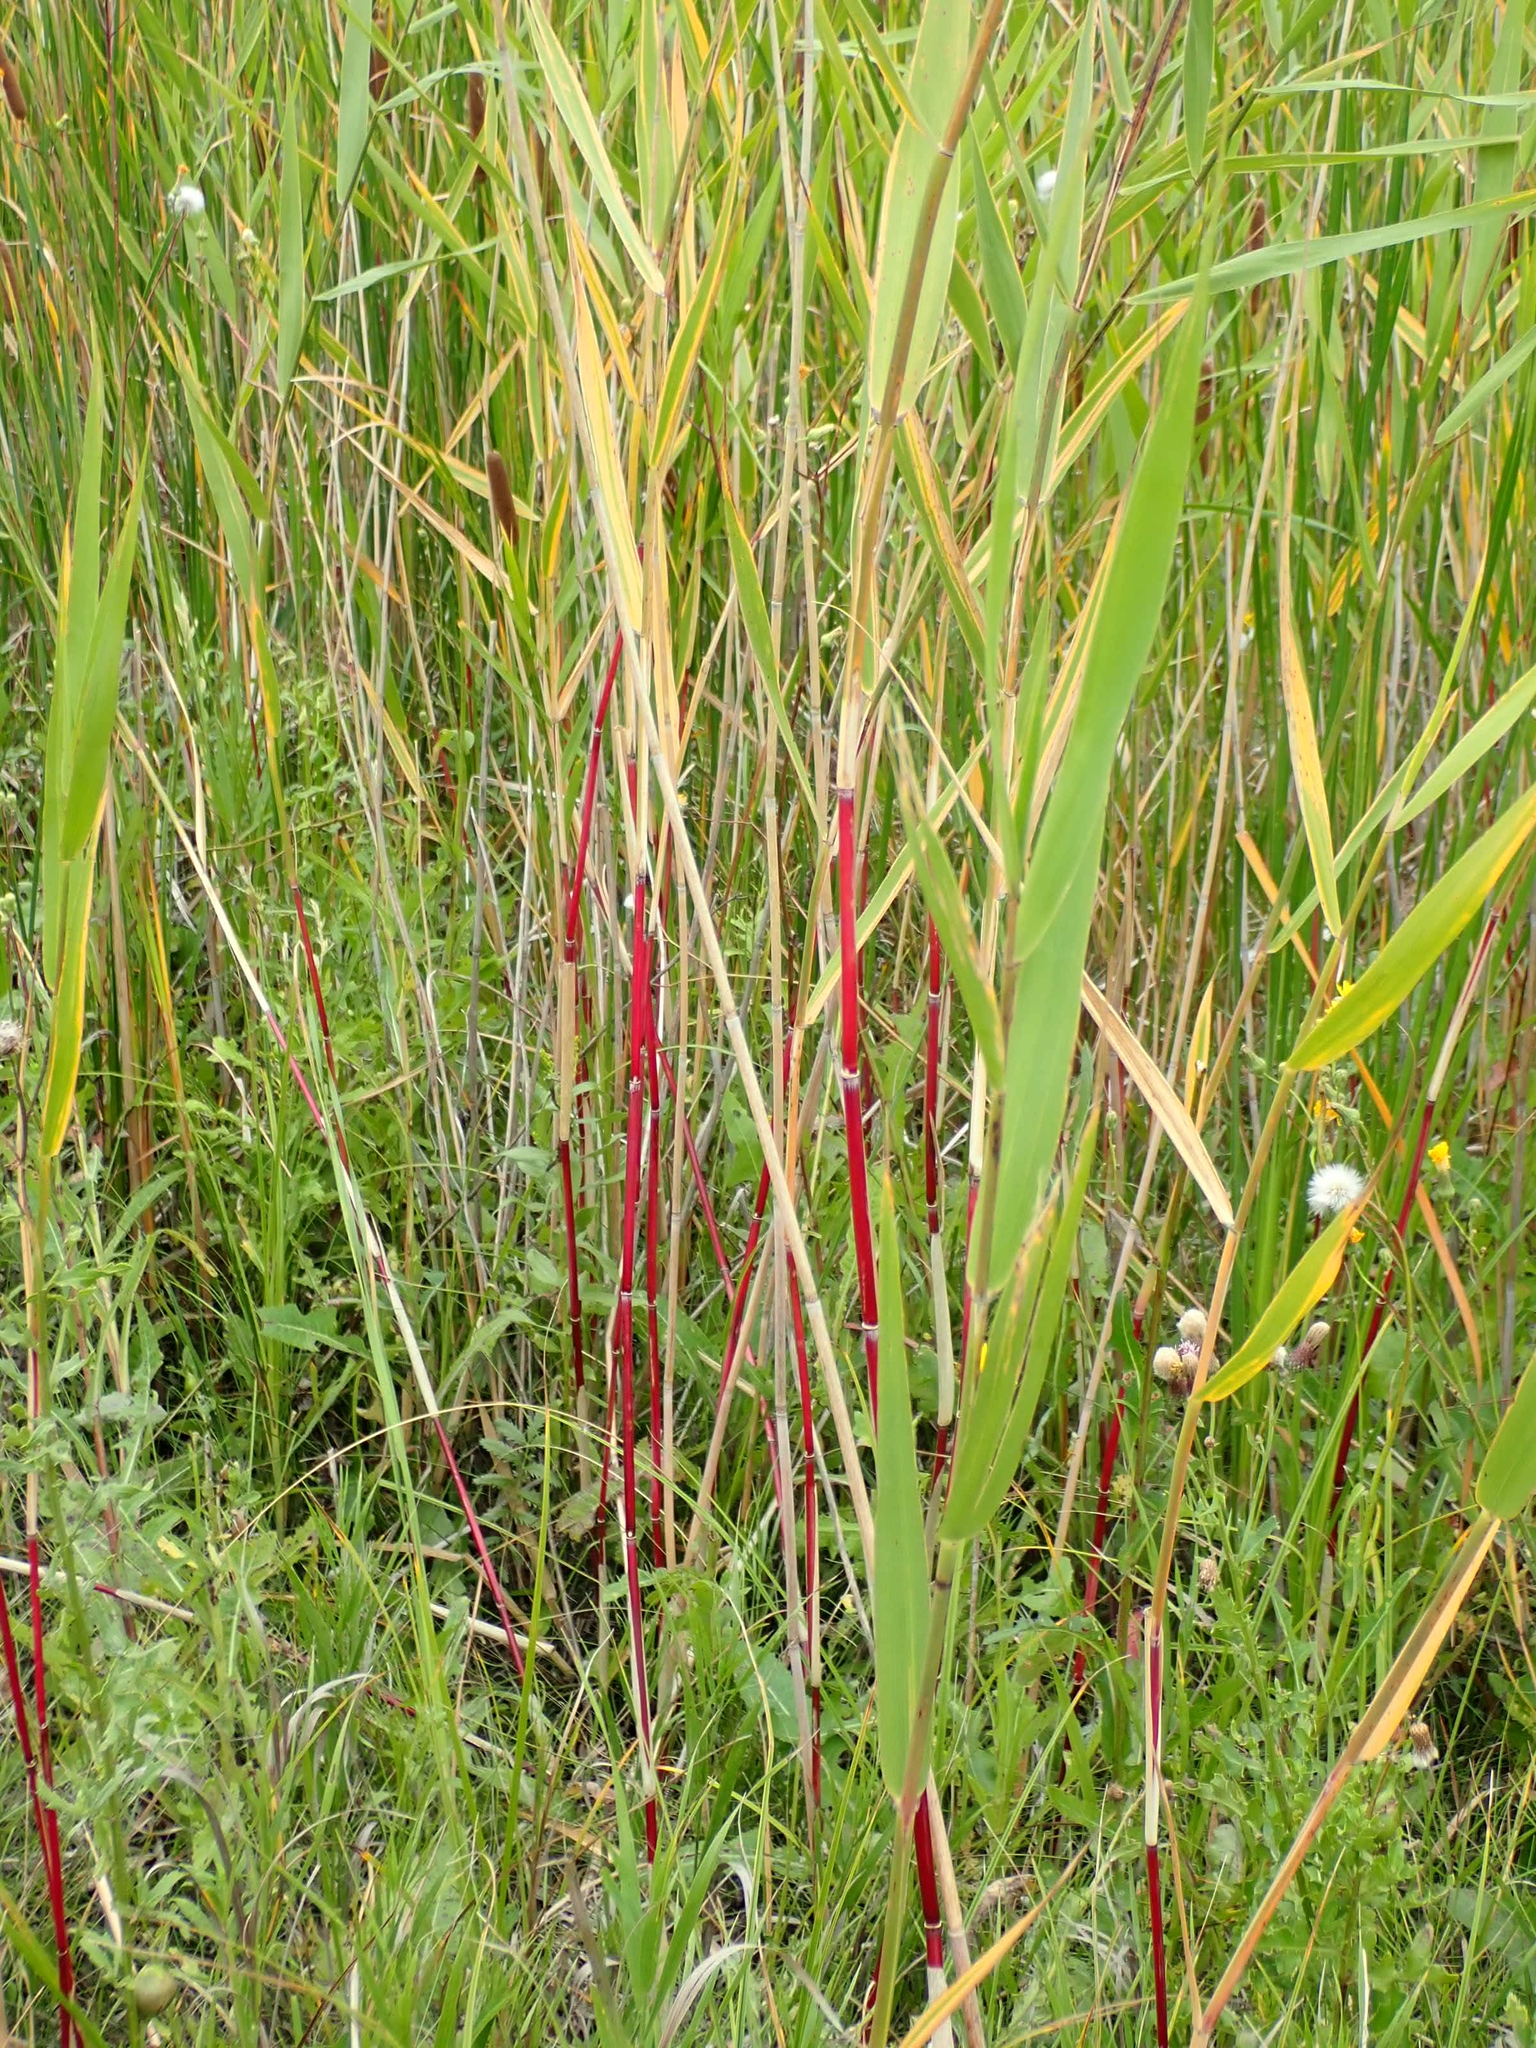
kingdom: Plantae
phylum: Tracheophyta
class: Liliopsida
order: Poales
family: Poaceae
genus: Phragmites
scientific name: Phragmites australis
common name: Common reed
